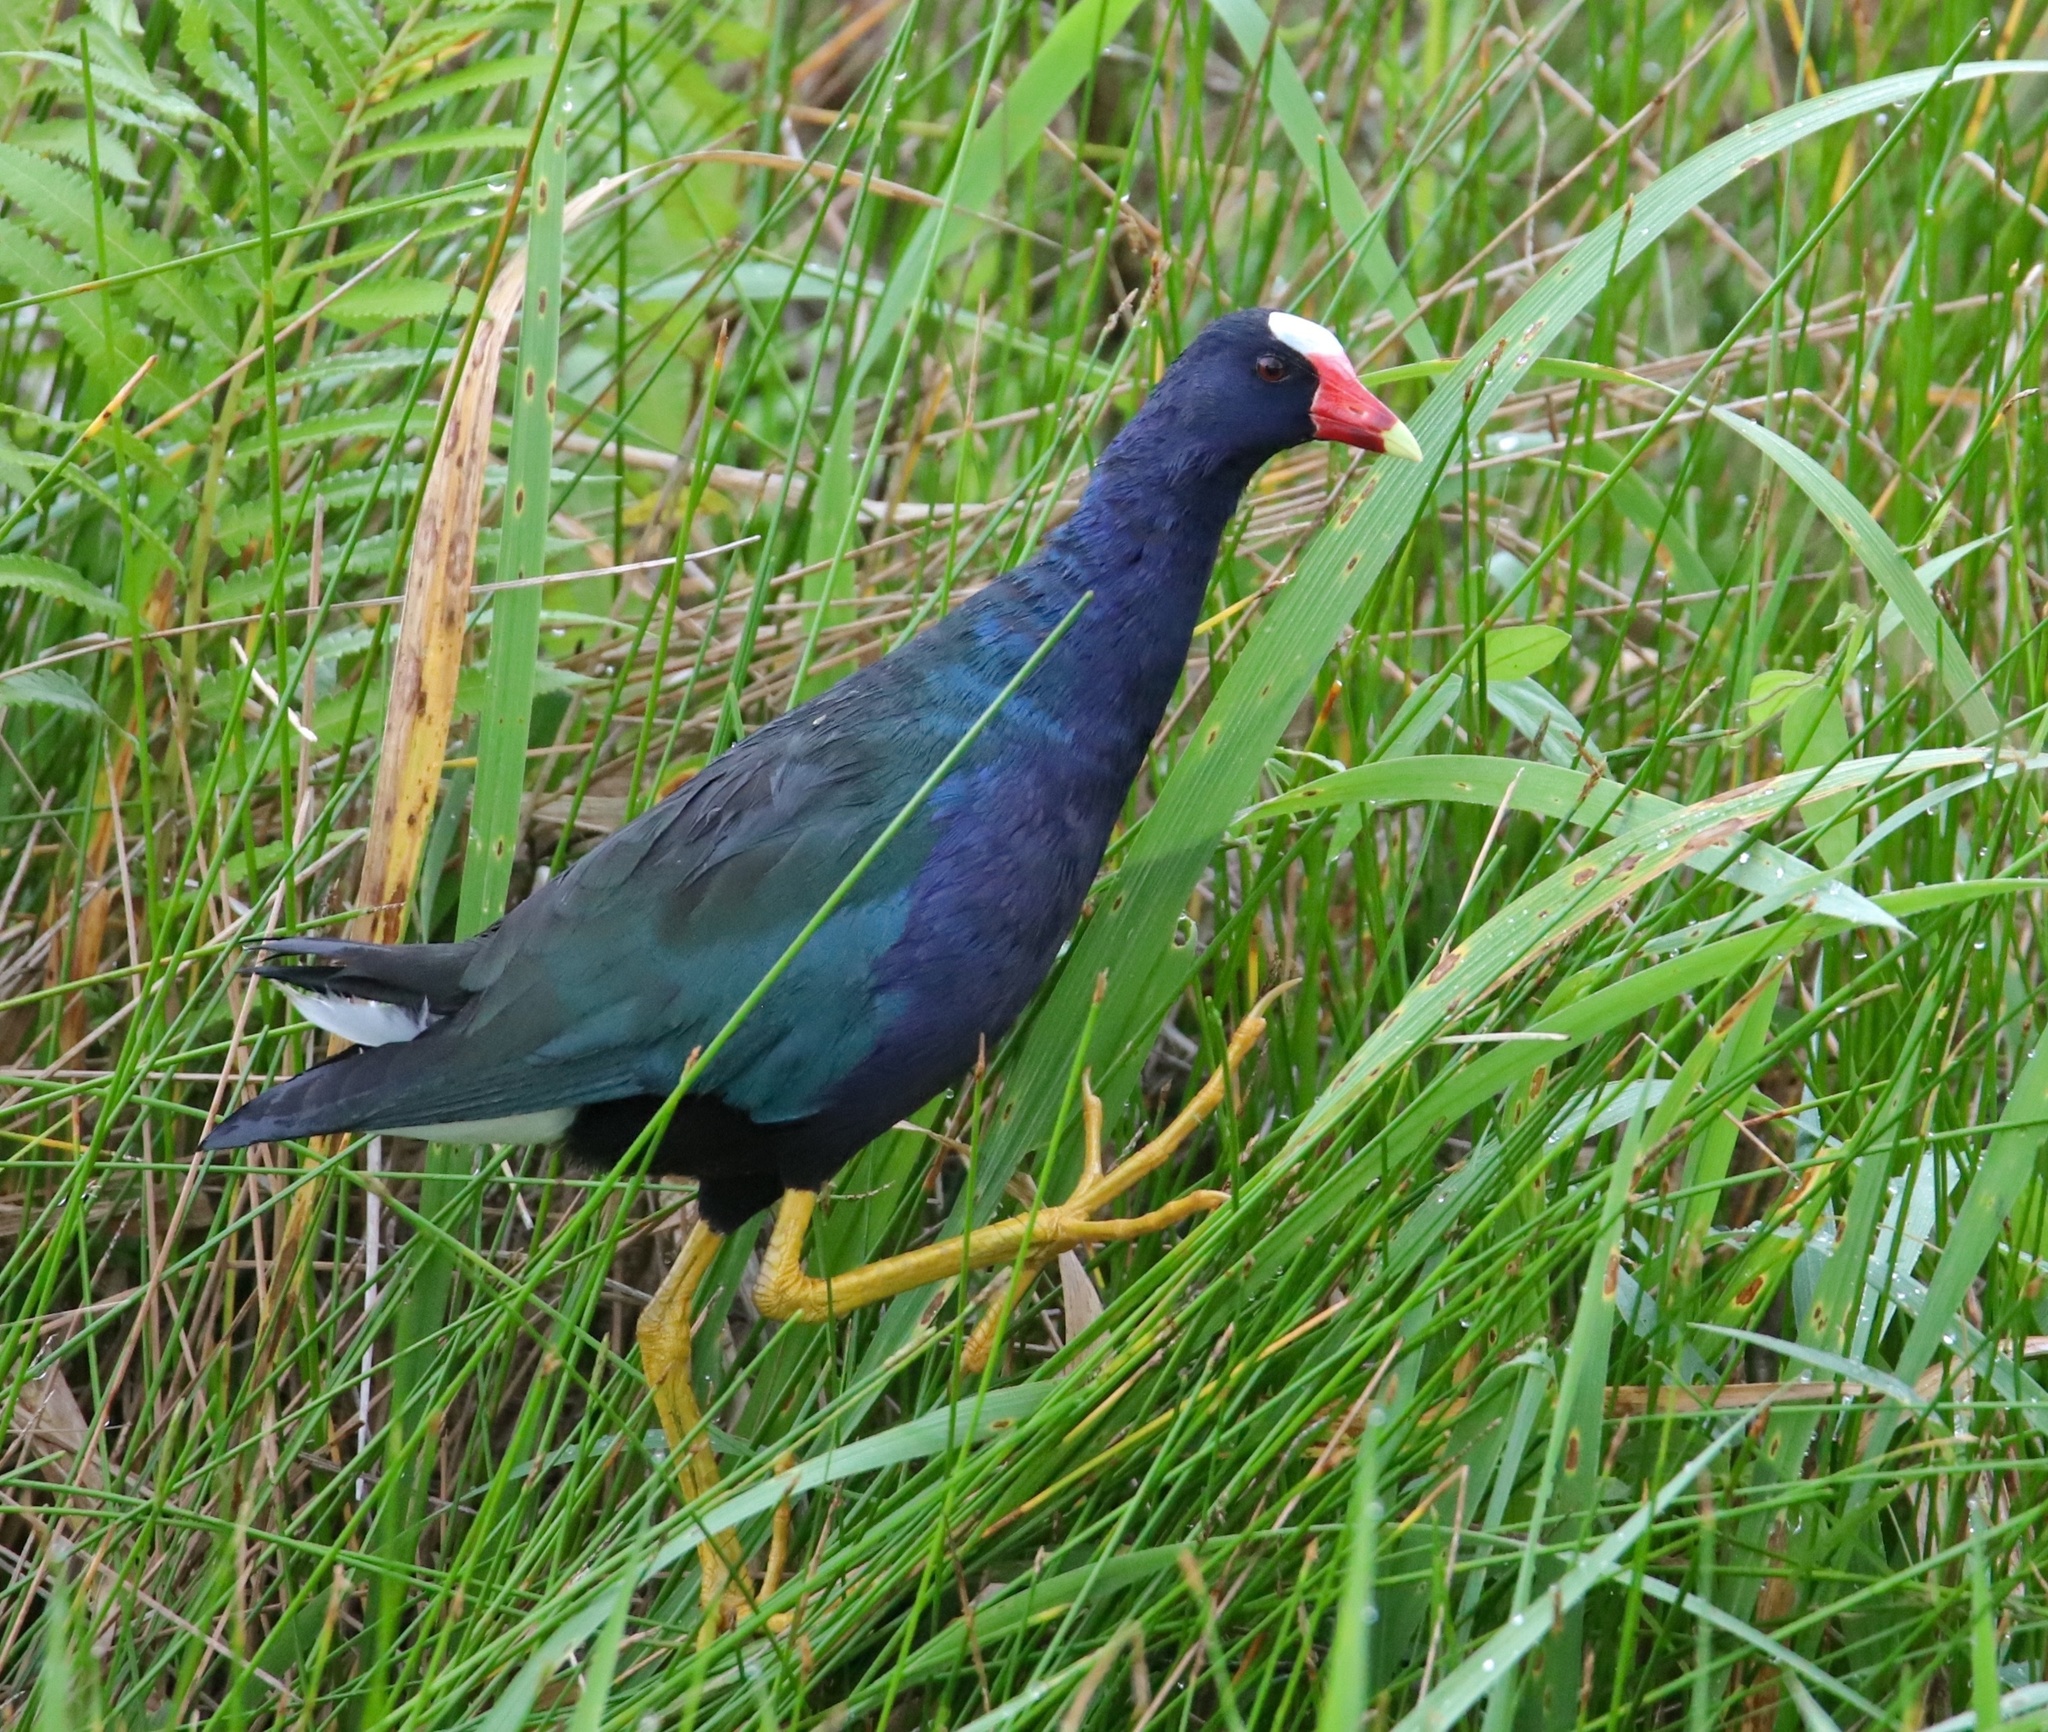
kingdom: Animalia
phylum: Chordata
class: Aves
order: Gruiformes
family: Rallidae
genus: Porphyrio
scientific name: Porphyrio martinica
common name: Purple gallinule
